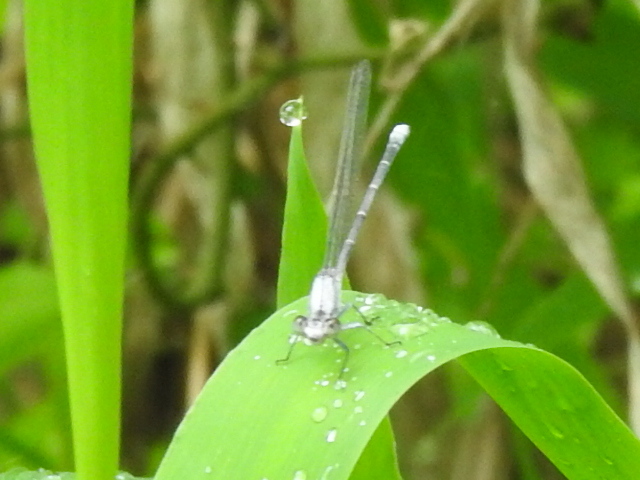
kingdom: Animalia
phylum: Arthropoda
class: Insecta
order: Odonata
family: Coenagrionidae
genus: Argia
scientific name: Argia moesta
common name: Powdered dancer
